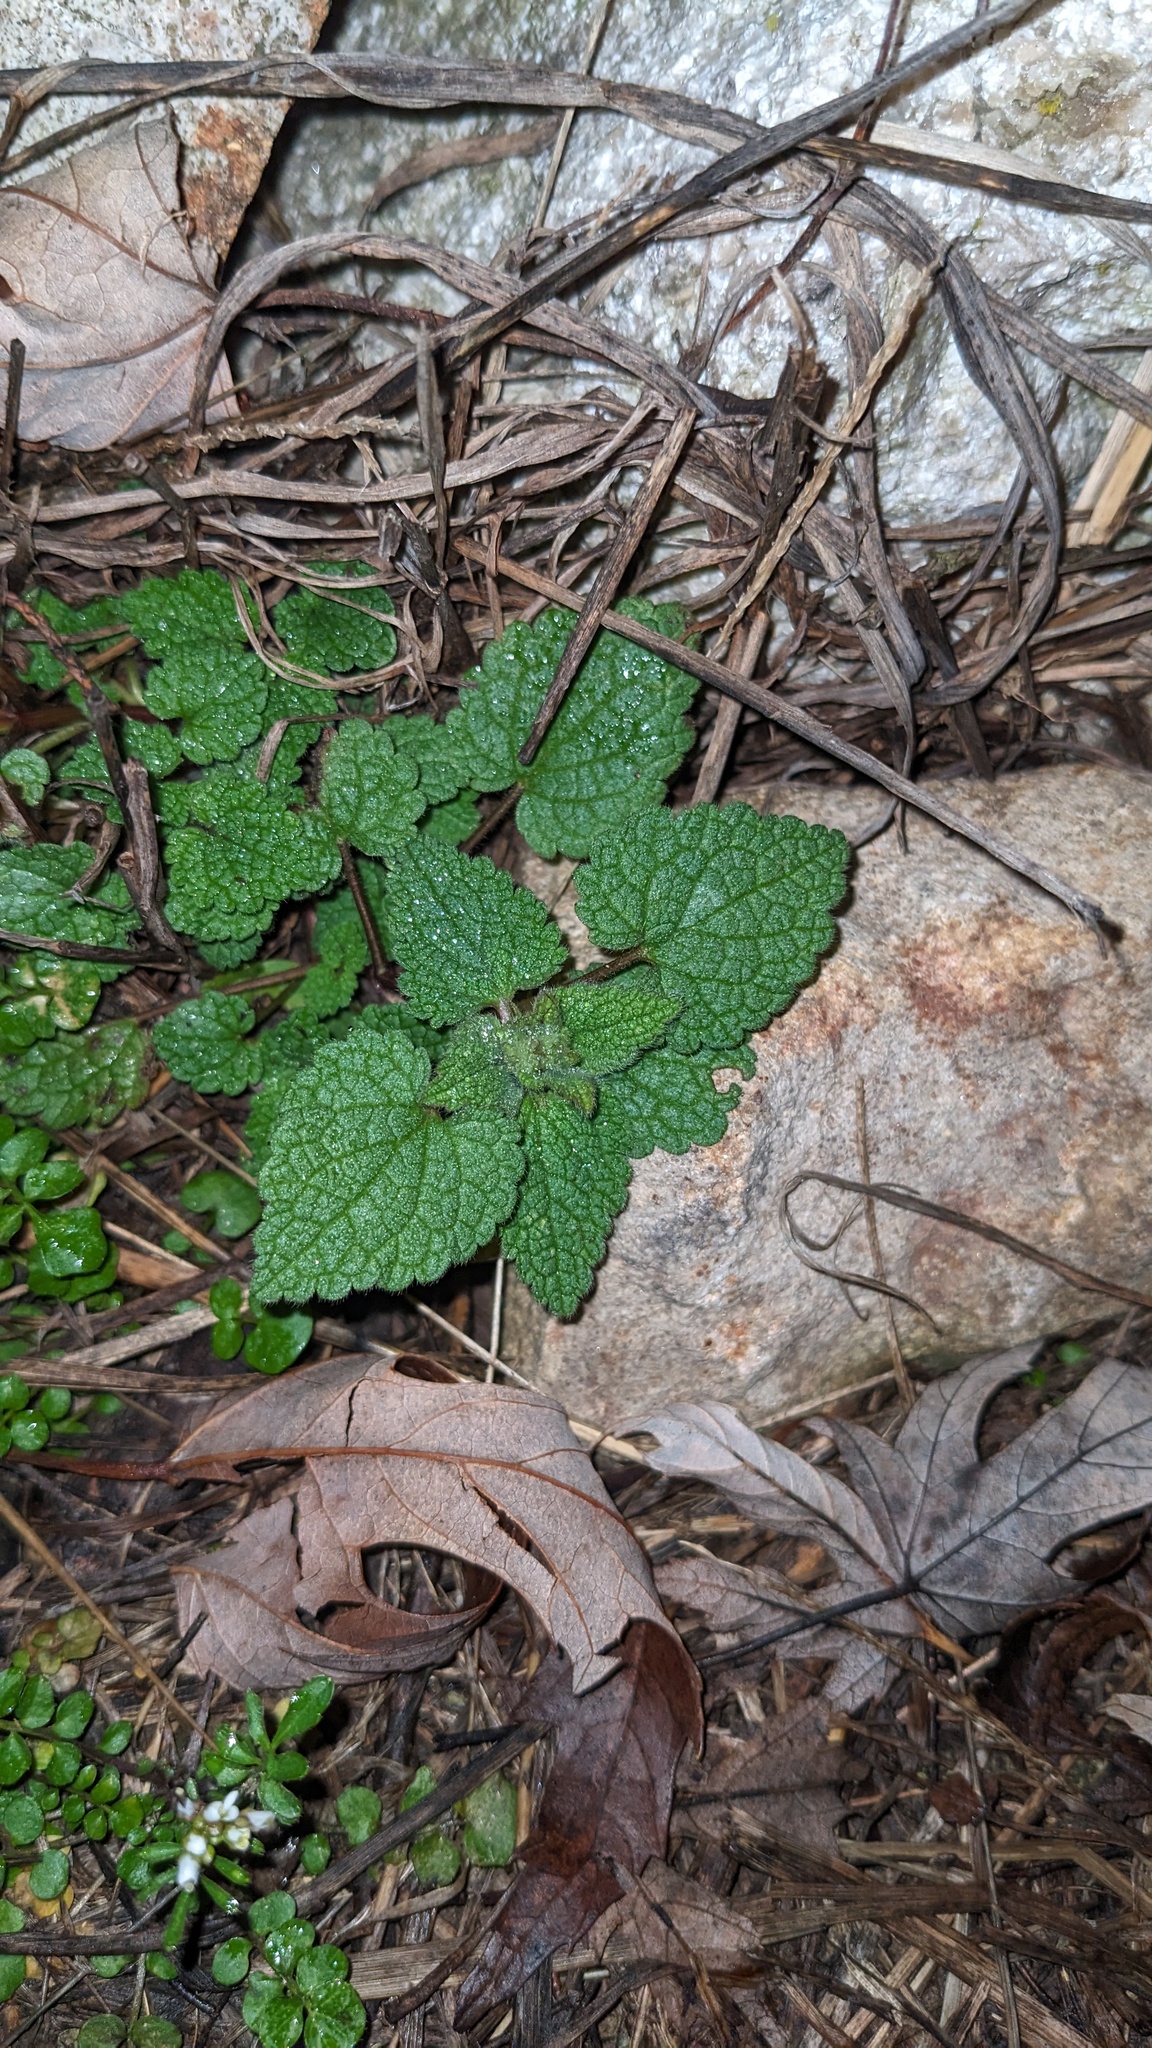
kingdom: Plantae
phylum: Tracheophyta
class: Magnoliopsida
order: Lamiales
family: Lamiaceae
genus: Lamium
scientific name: Lamium purpureum
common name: Red dead-nettle
